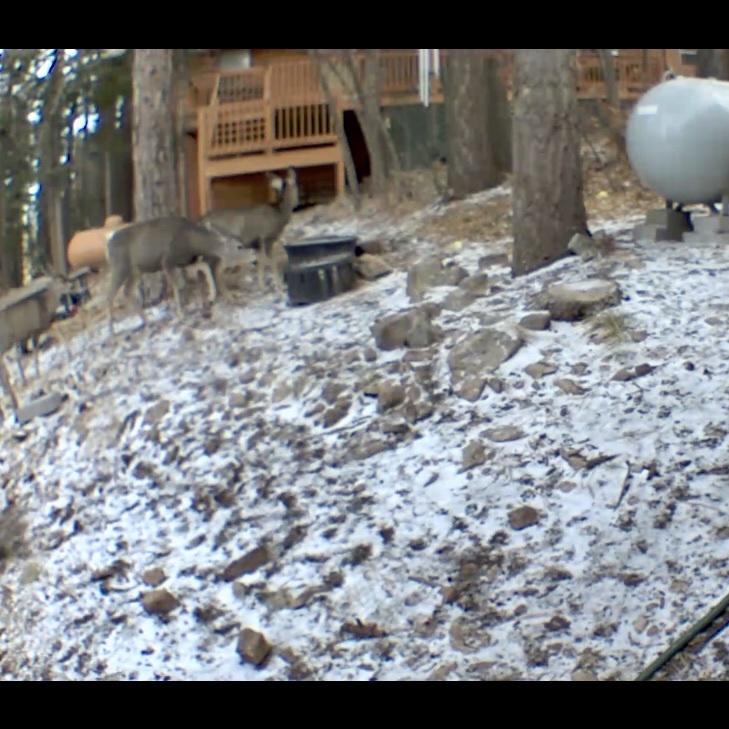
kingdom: Animalia
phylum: Chordata
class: Mammalia
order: Artiodactyla
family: Cervidae
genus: Odocoileus
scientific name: Odocoileus hemionus
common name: Mule deer
